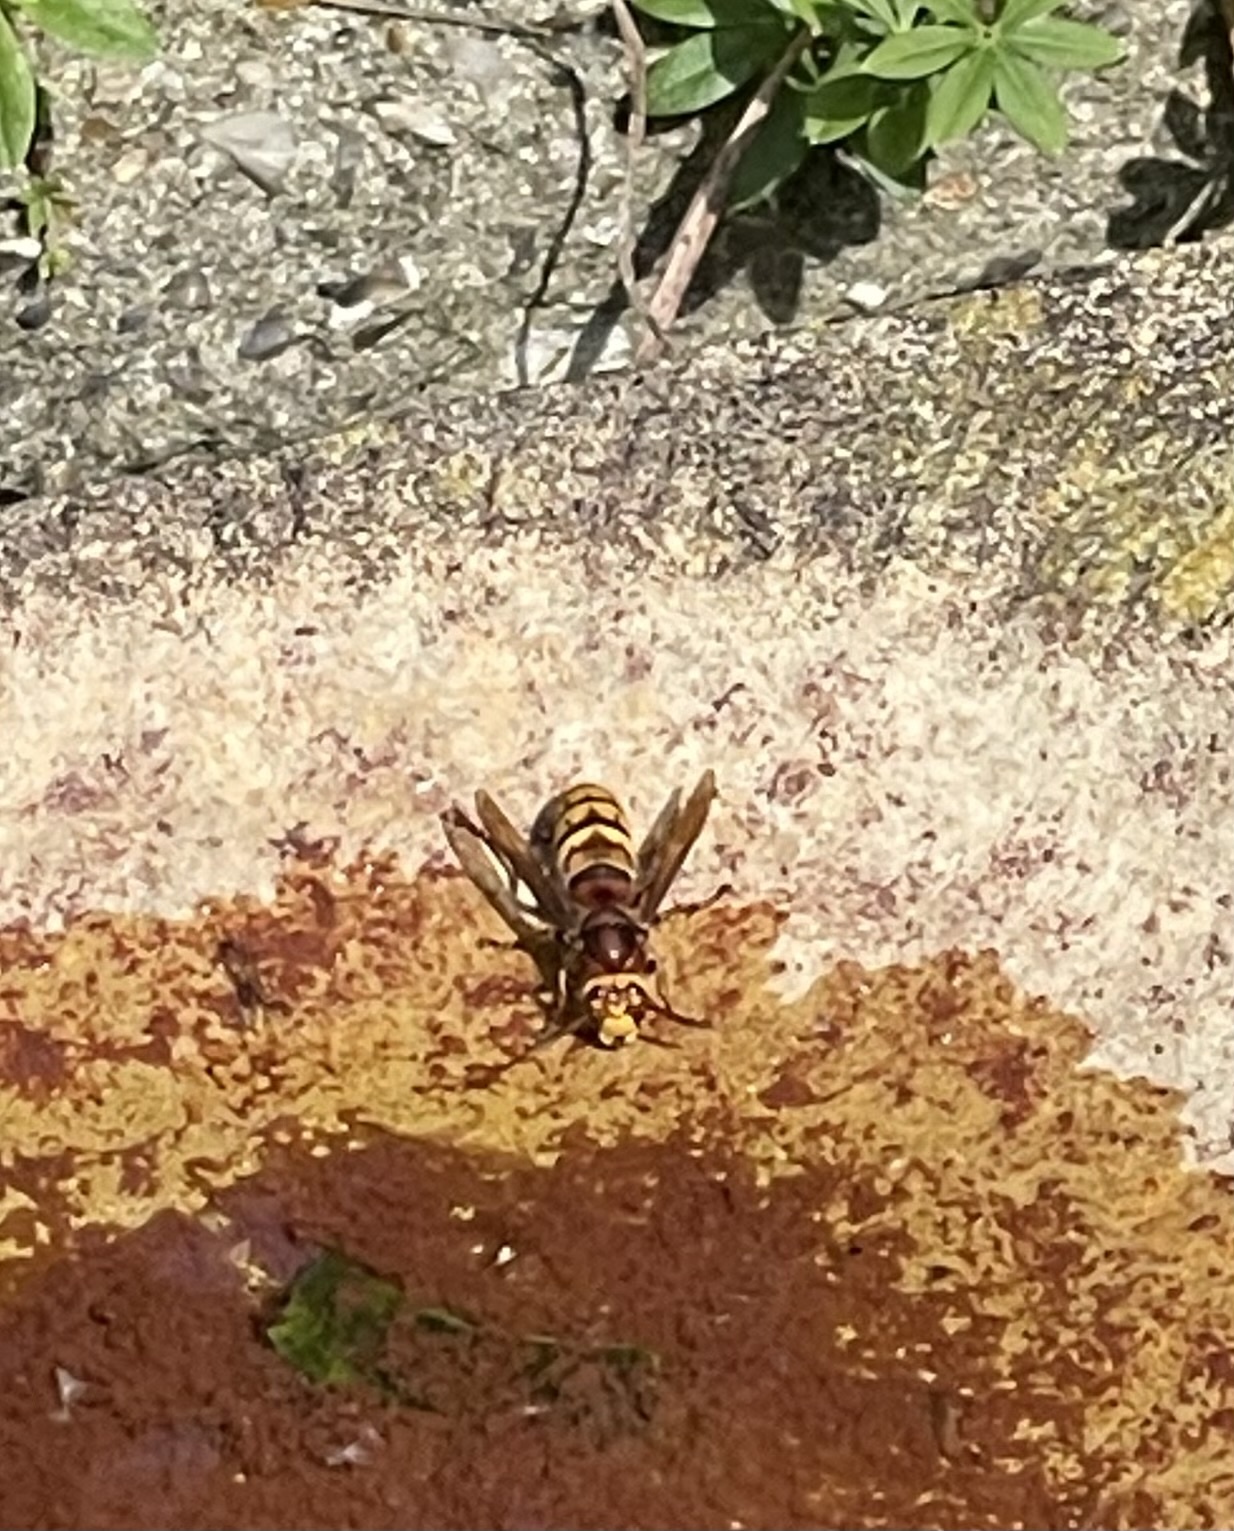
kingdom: Animalia
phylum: Arthropoda
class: Insecta
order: Hymenoptera
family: Vespidae
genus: Vespa
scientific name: Vespa crabro
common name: Hornet
